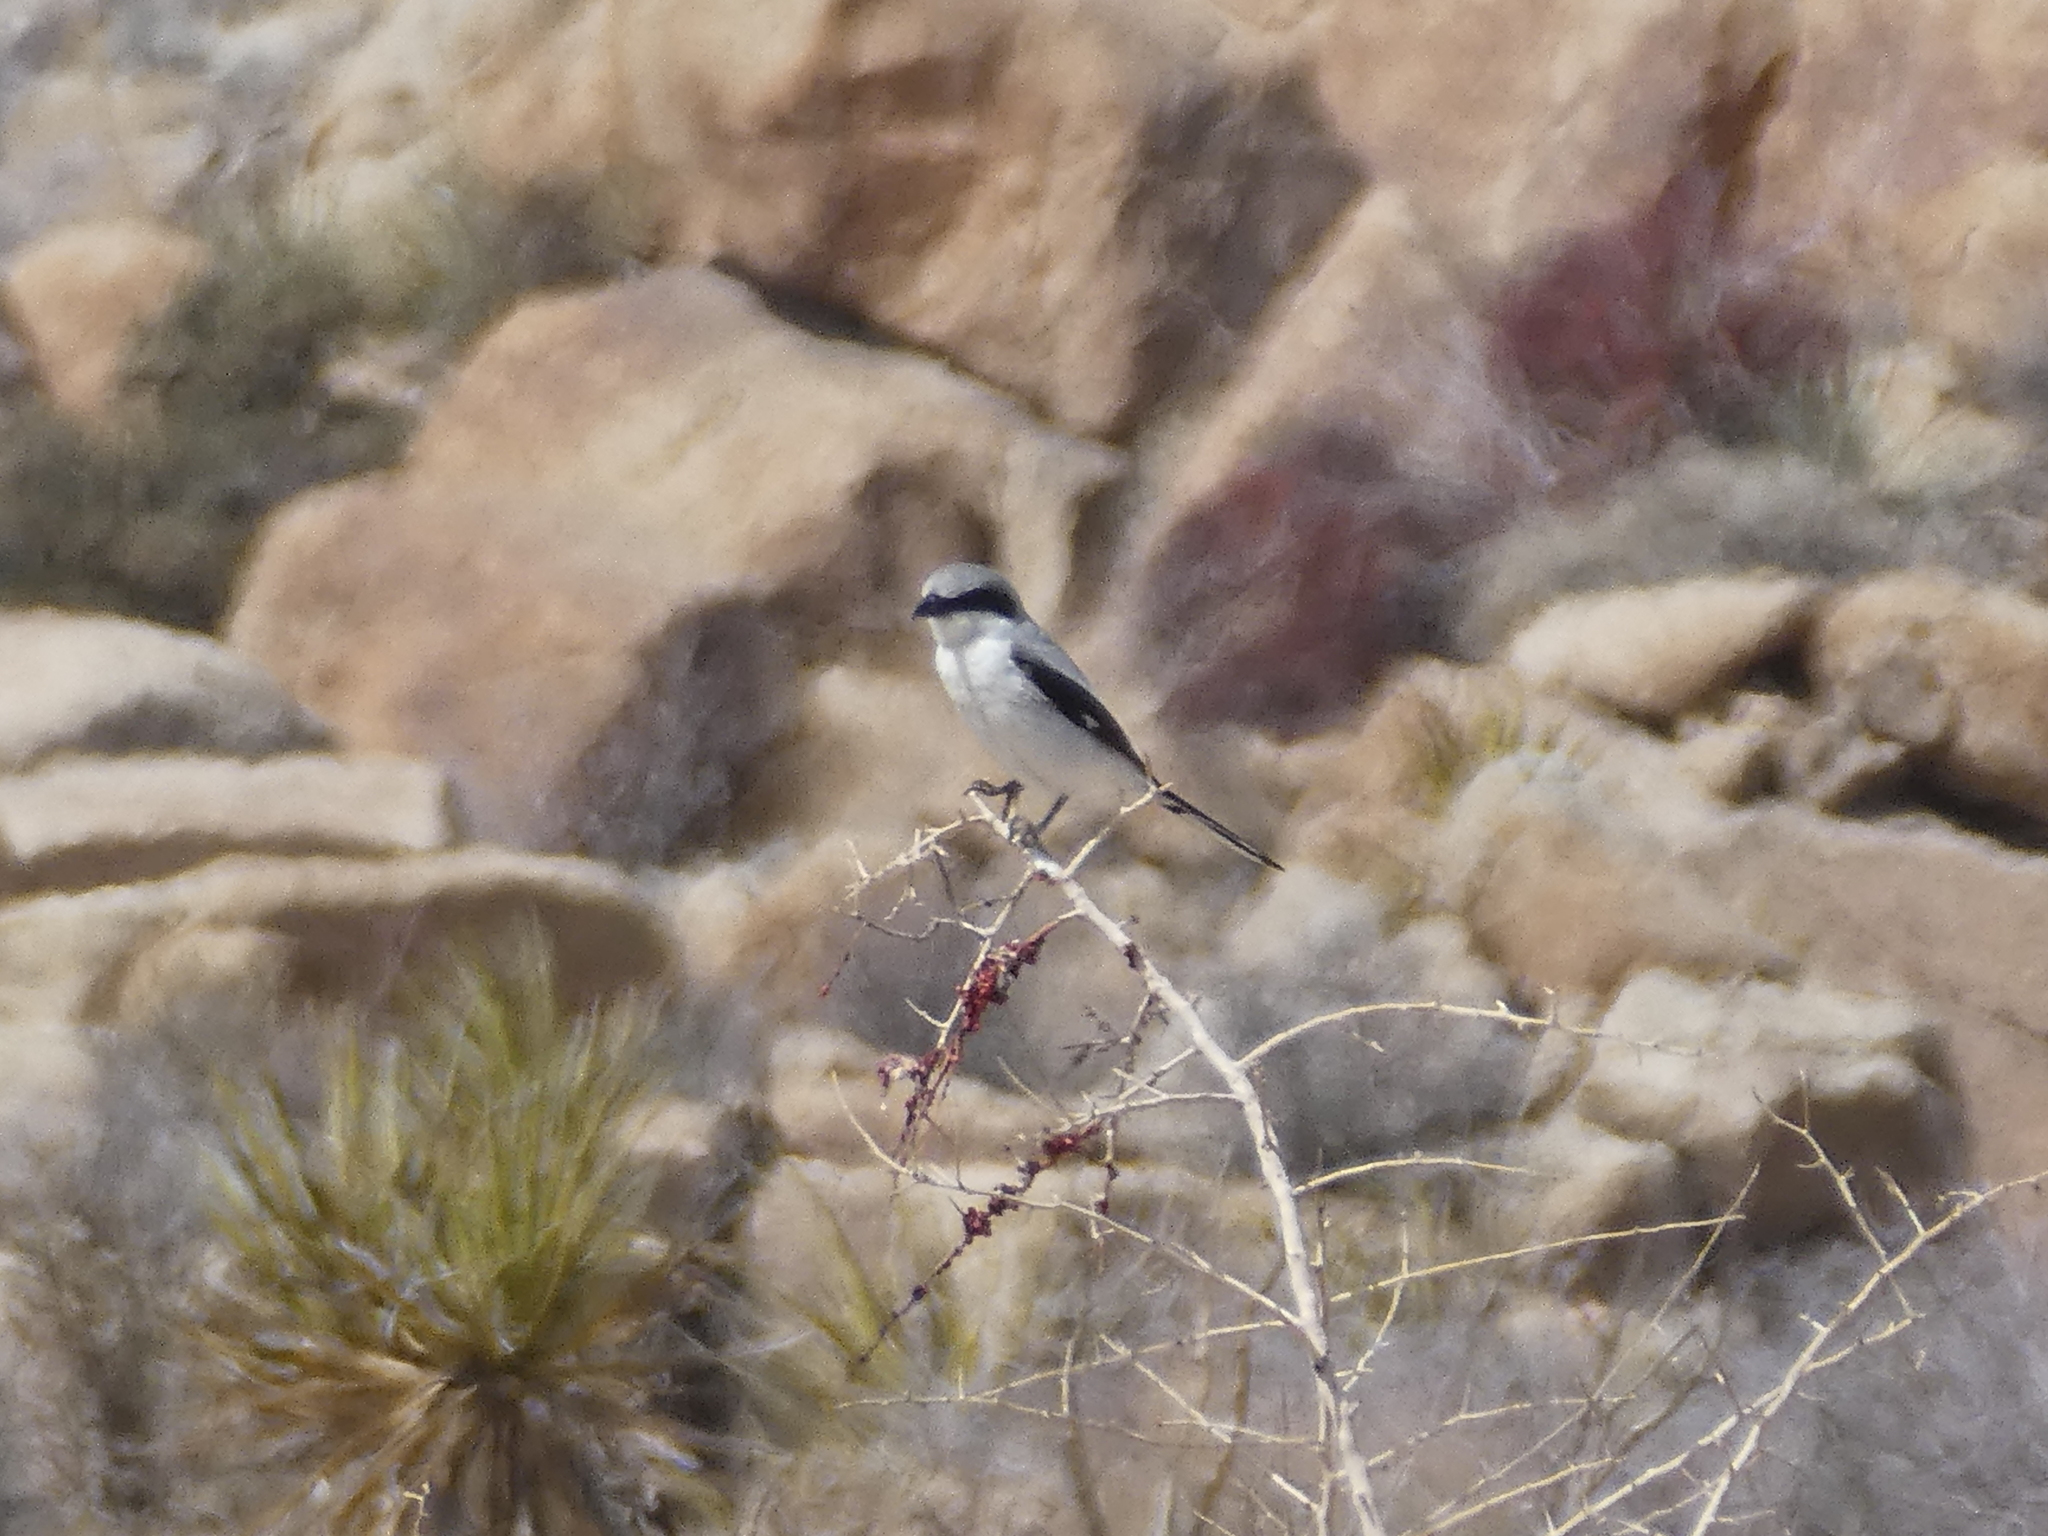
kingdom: Animalia
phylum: Chordata
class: Aves
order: Passeriformes
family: Laniidae
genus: Lanius
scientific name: Lanius ludovicianus
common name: Loggerhead shrike
